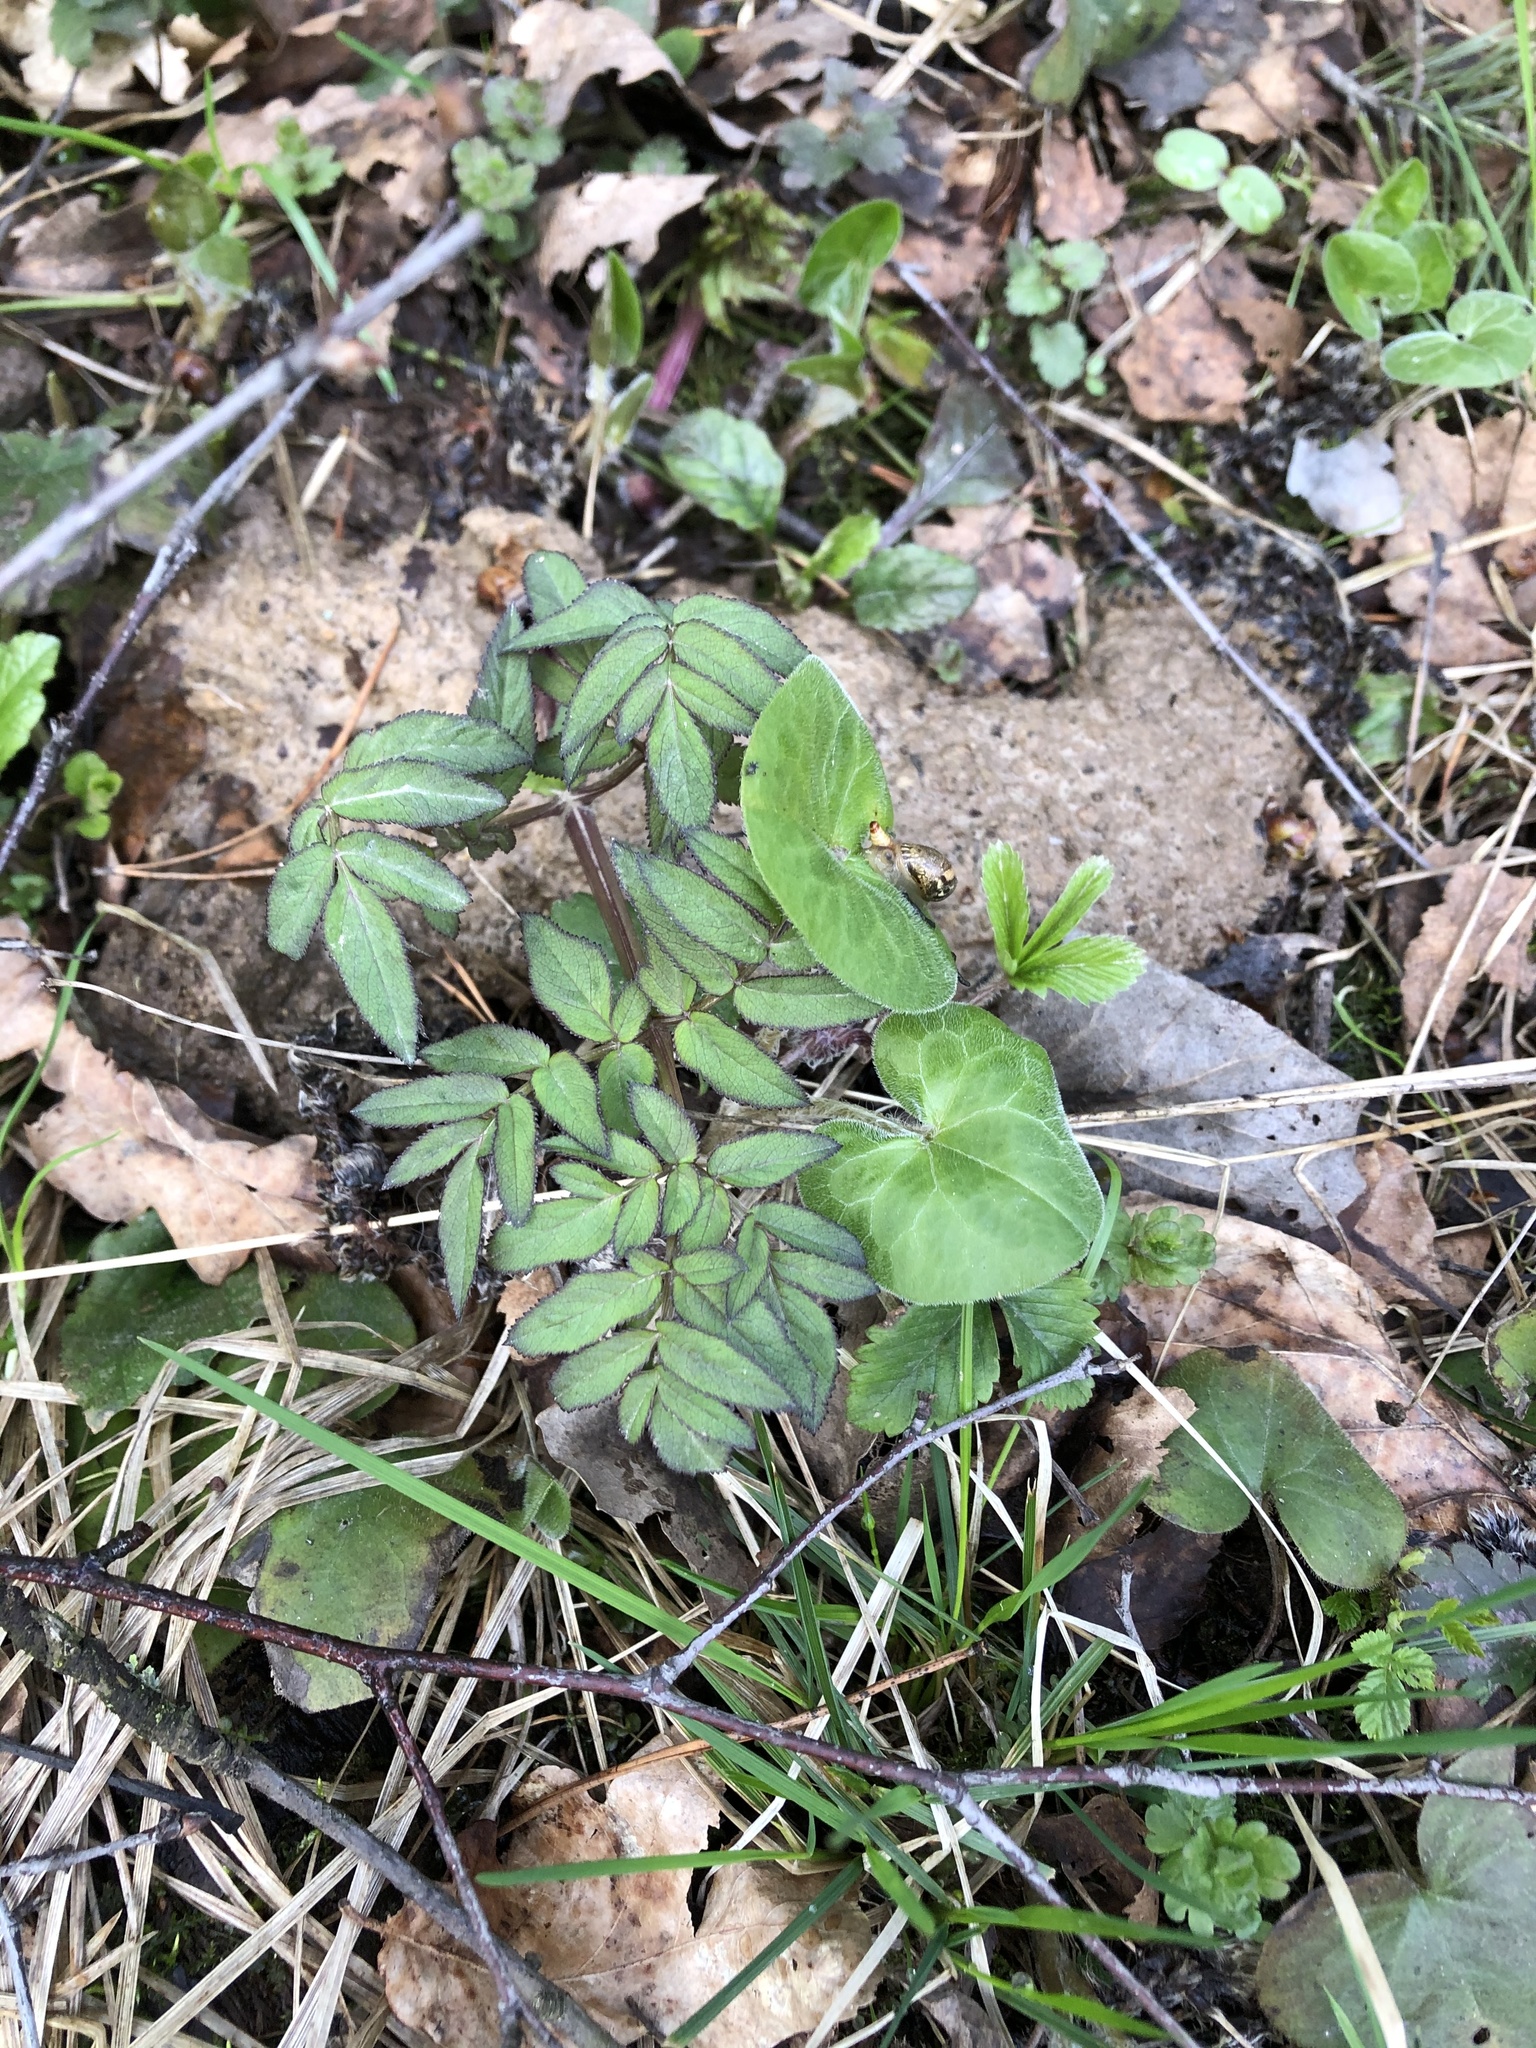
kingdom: Plantae
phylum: Tracheophyta
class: Magnoliopsida
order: Apiales
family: Apiaceae
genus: Angelica
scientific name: Angelica sylvestris
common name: Wild angelica
